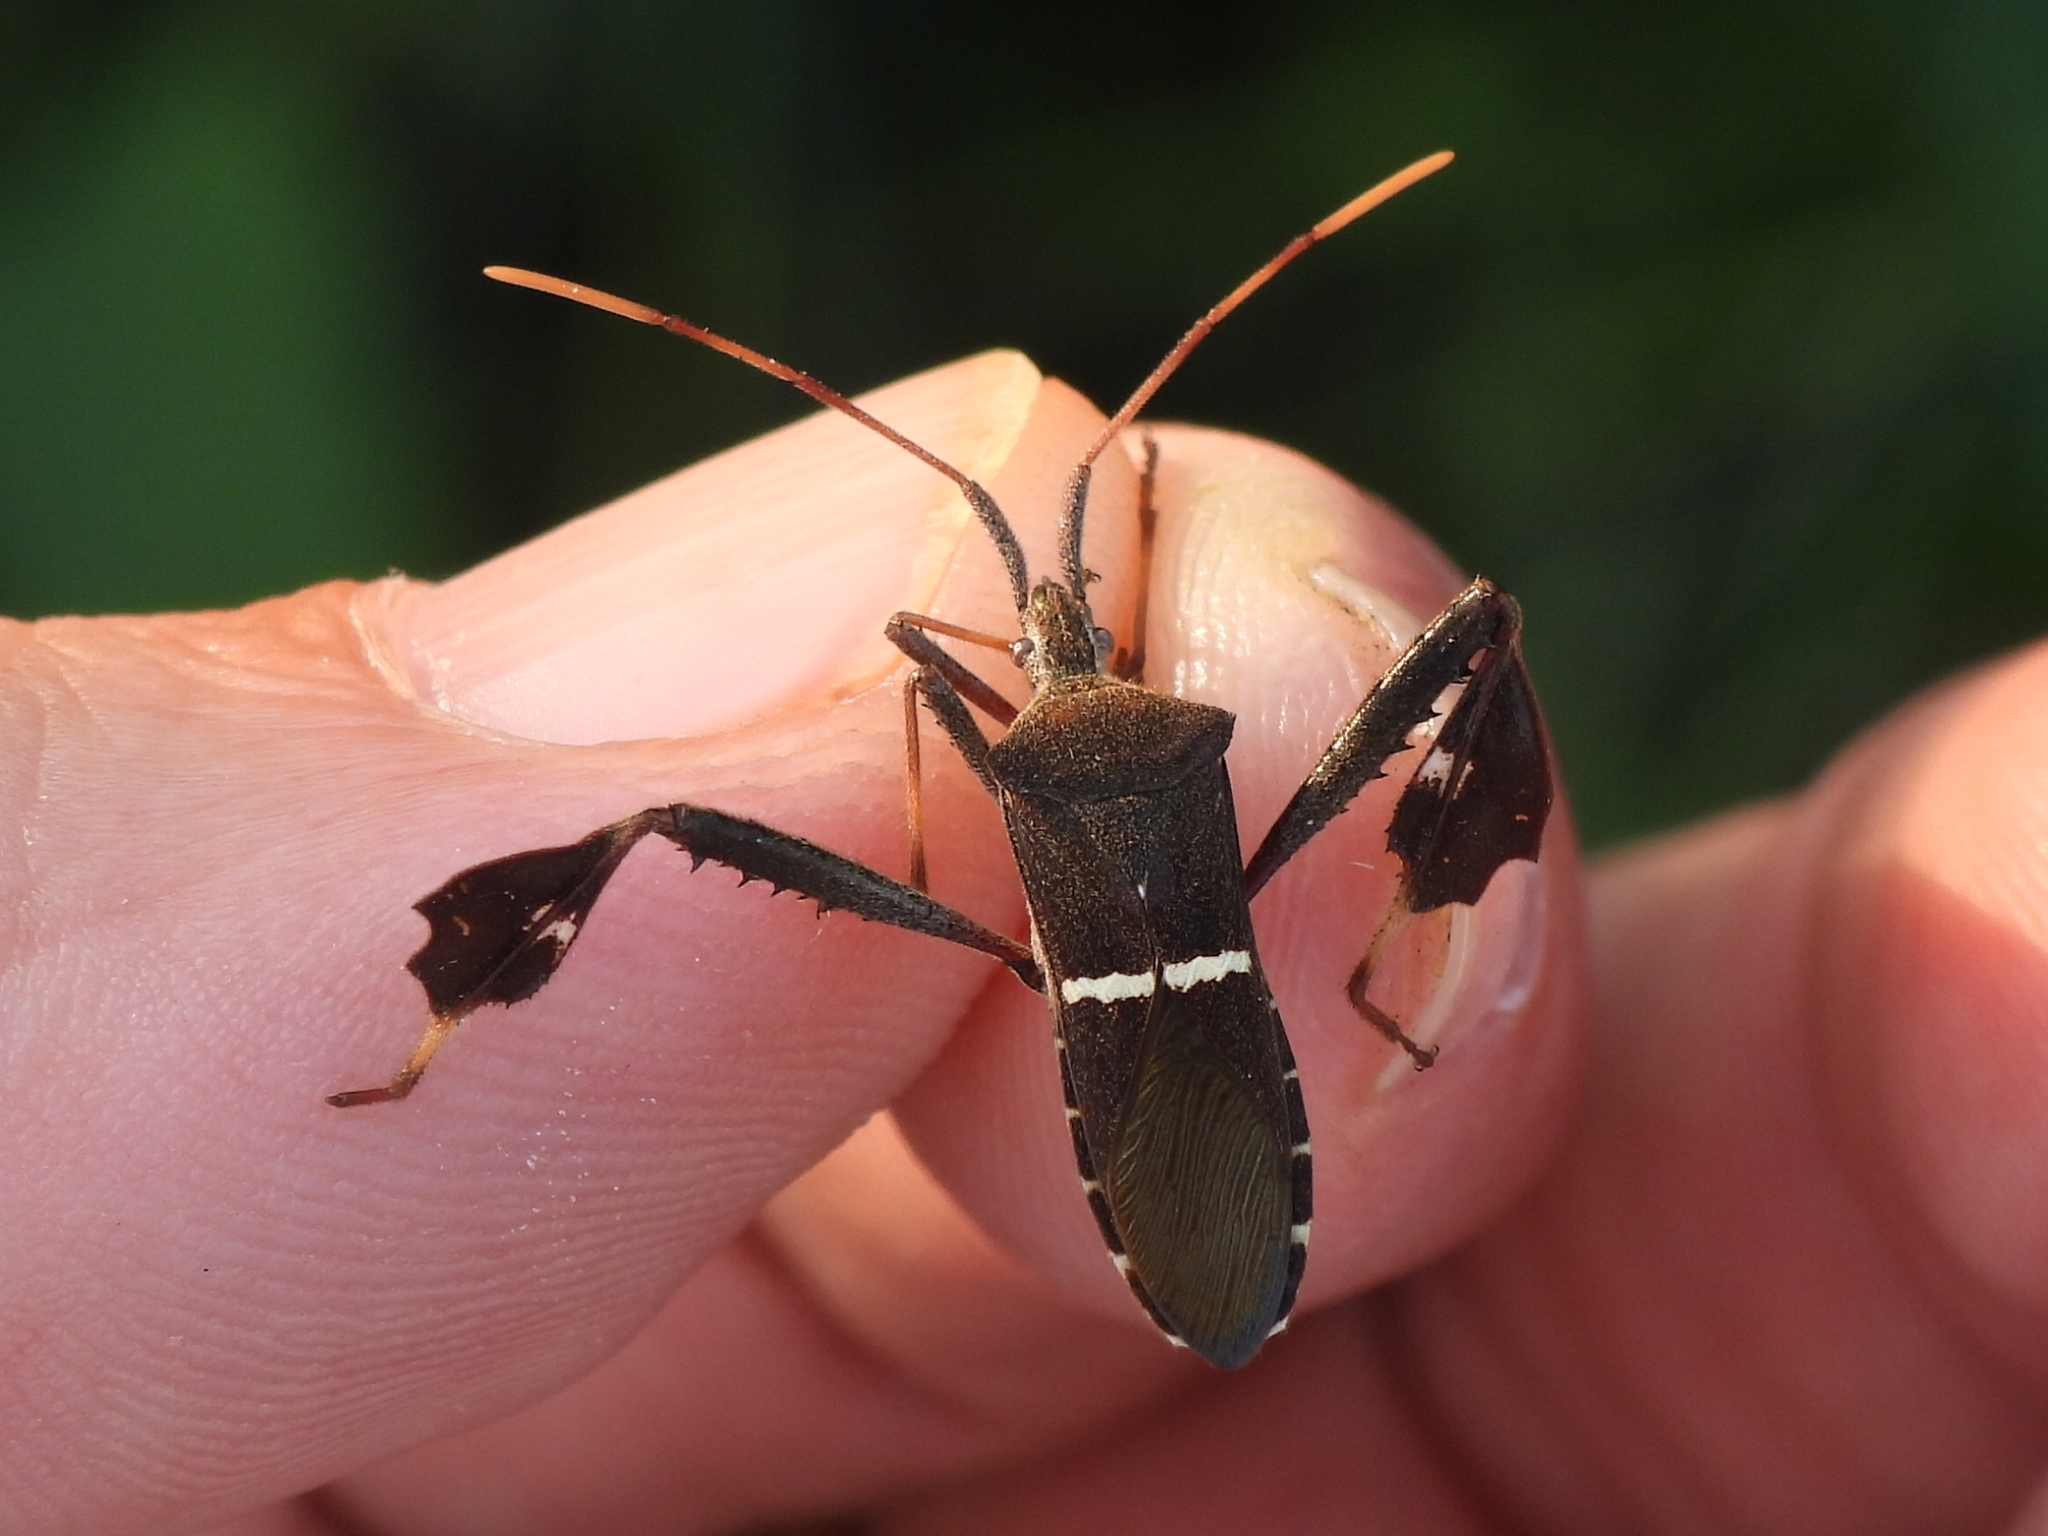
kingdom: Animalia
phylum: Arthropoda
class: Insecta
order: Hemiptera
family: Coreidae
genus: Leptoglossus
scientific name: Leptoglossus phyllopus
